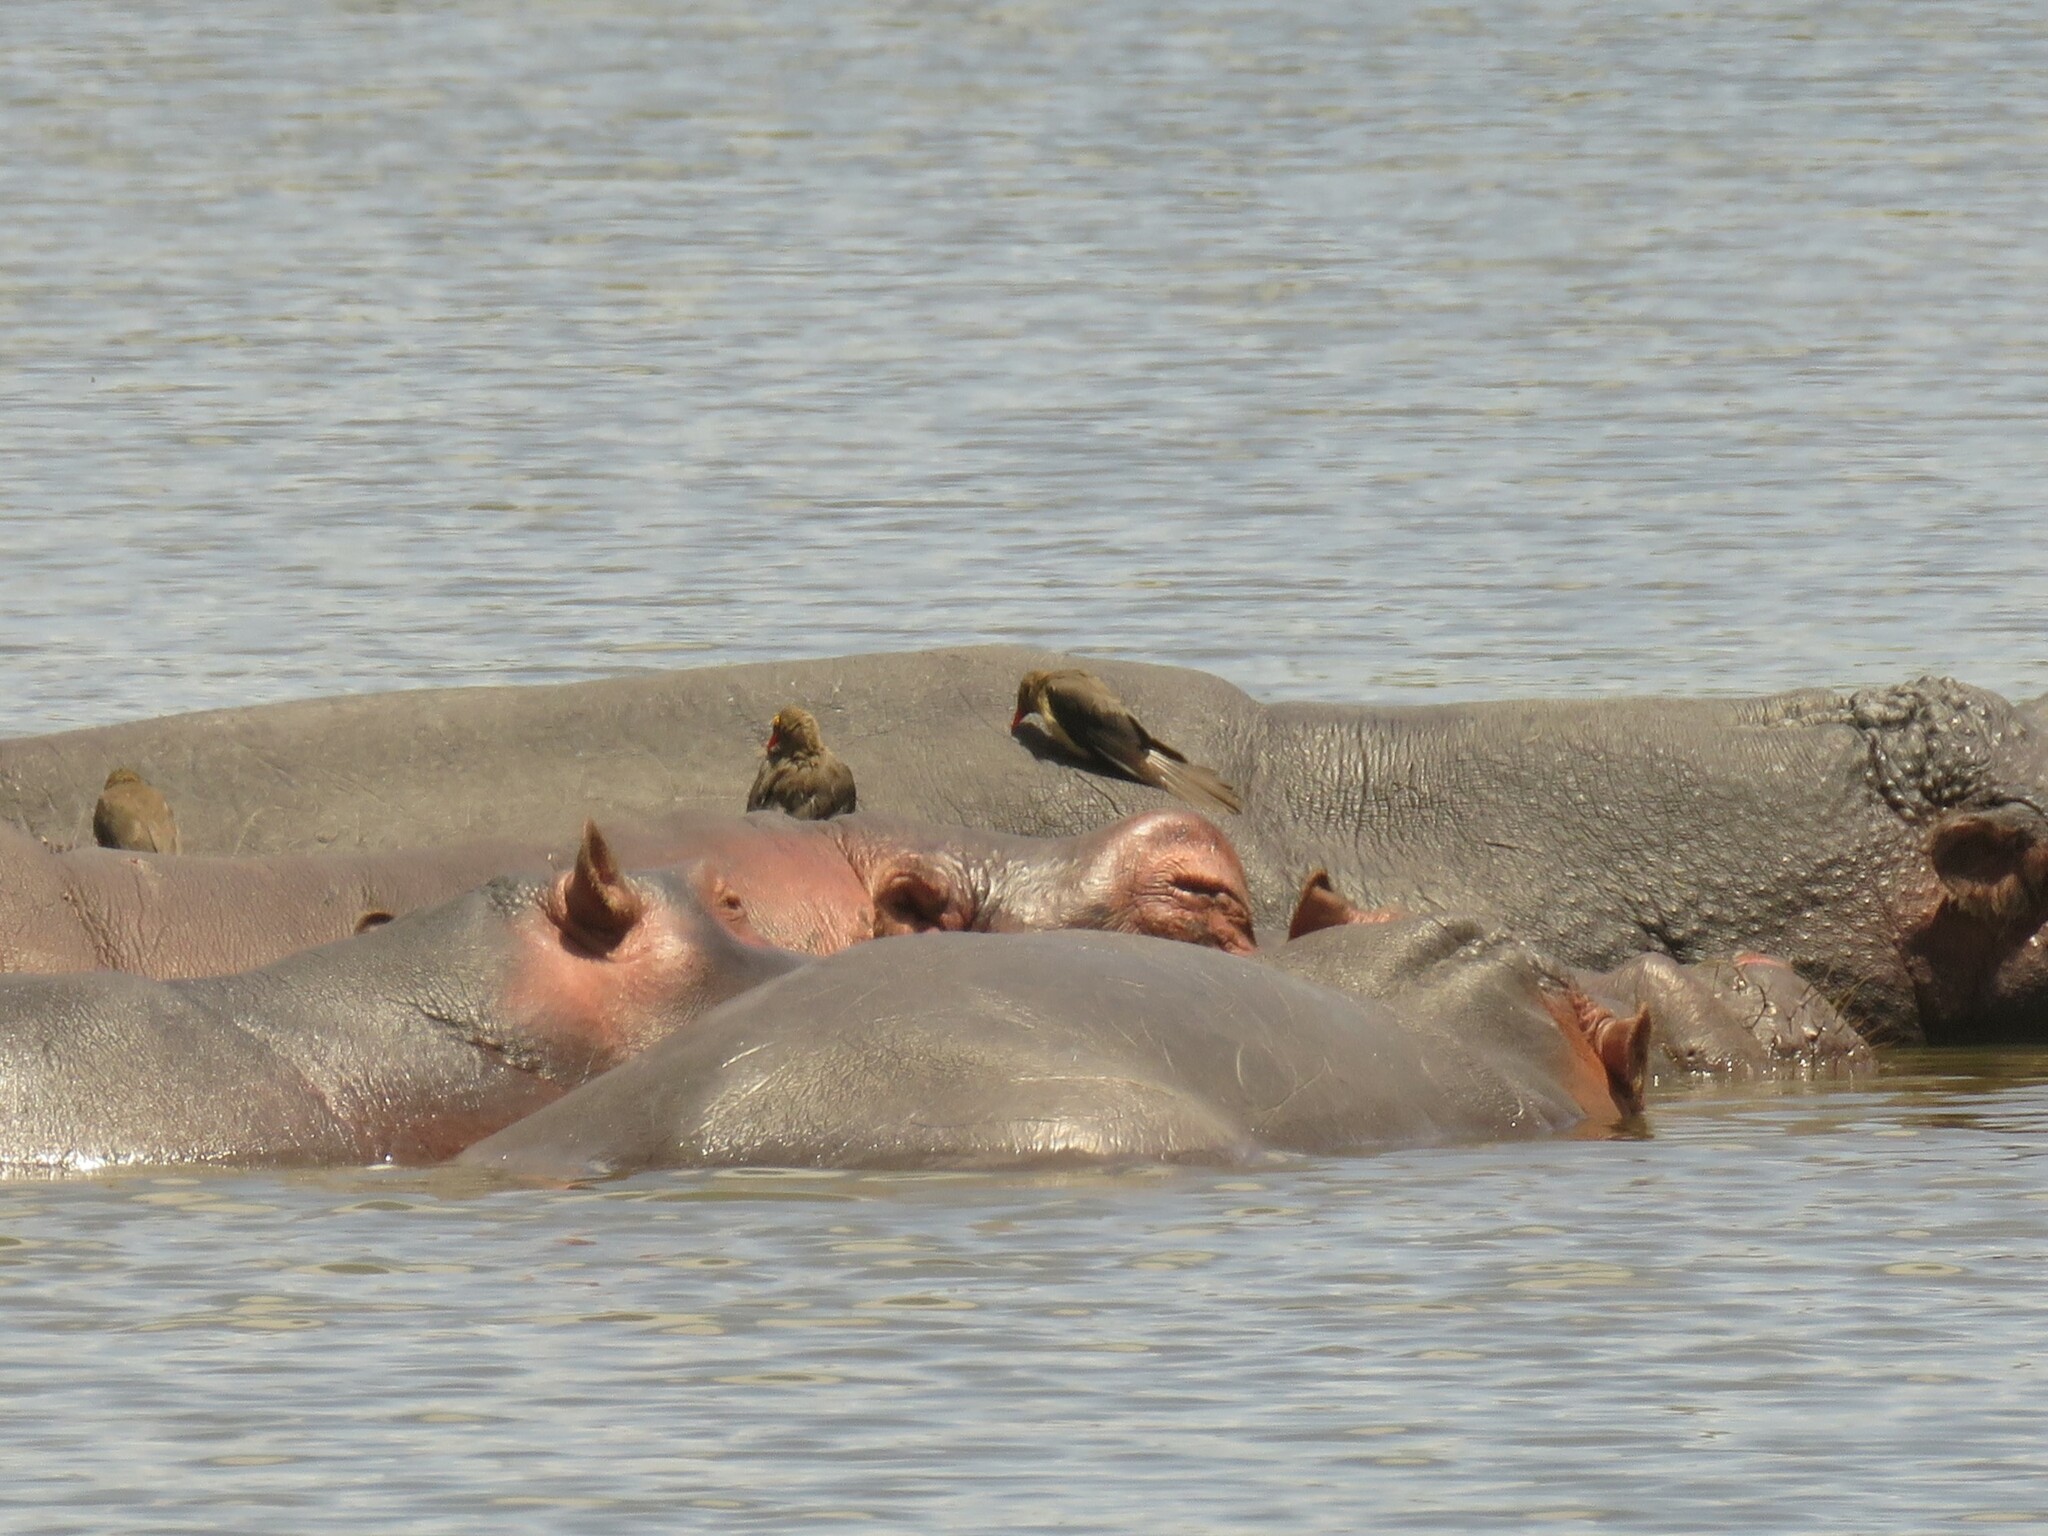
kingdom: Animalia
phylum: Chordata
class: Aves
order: Passeriformes
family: Buphagidae
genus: Buphagus
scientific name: Buphagus erythrorhynchus
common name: Red-billed oxpecker
